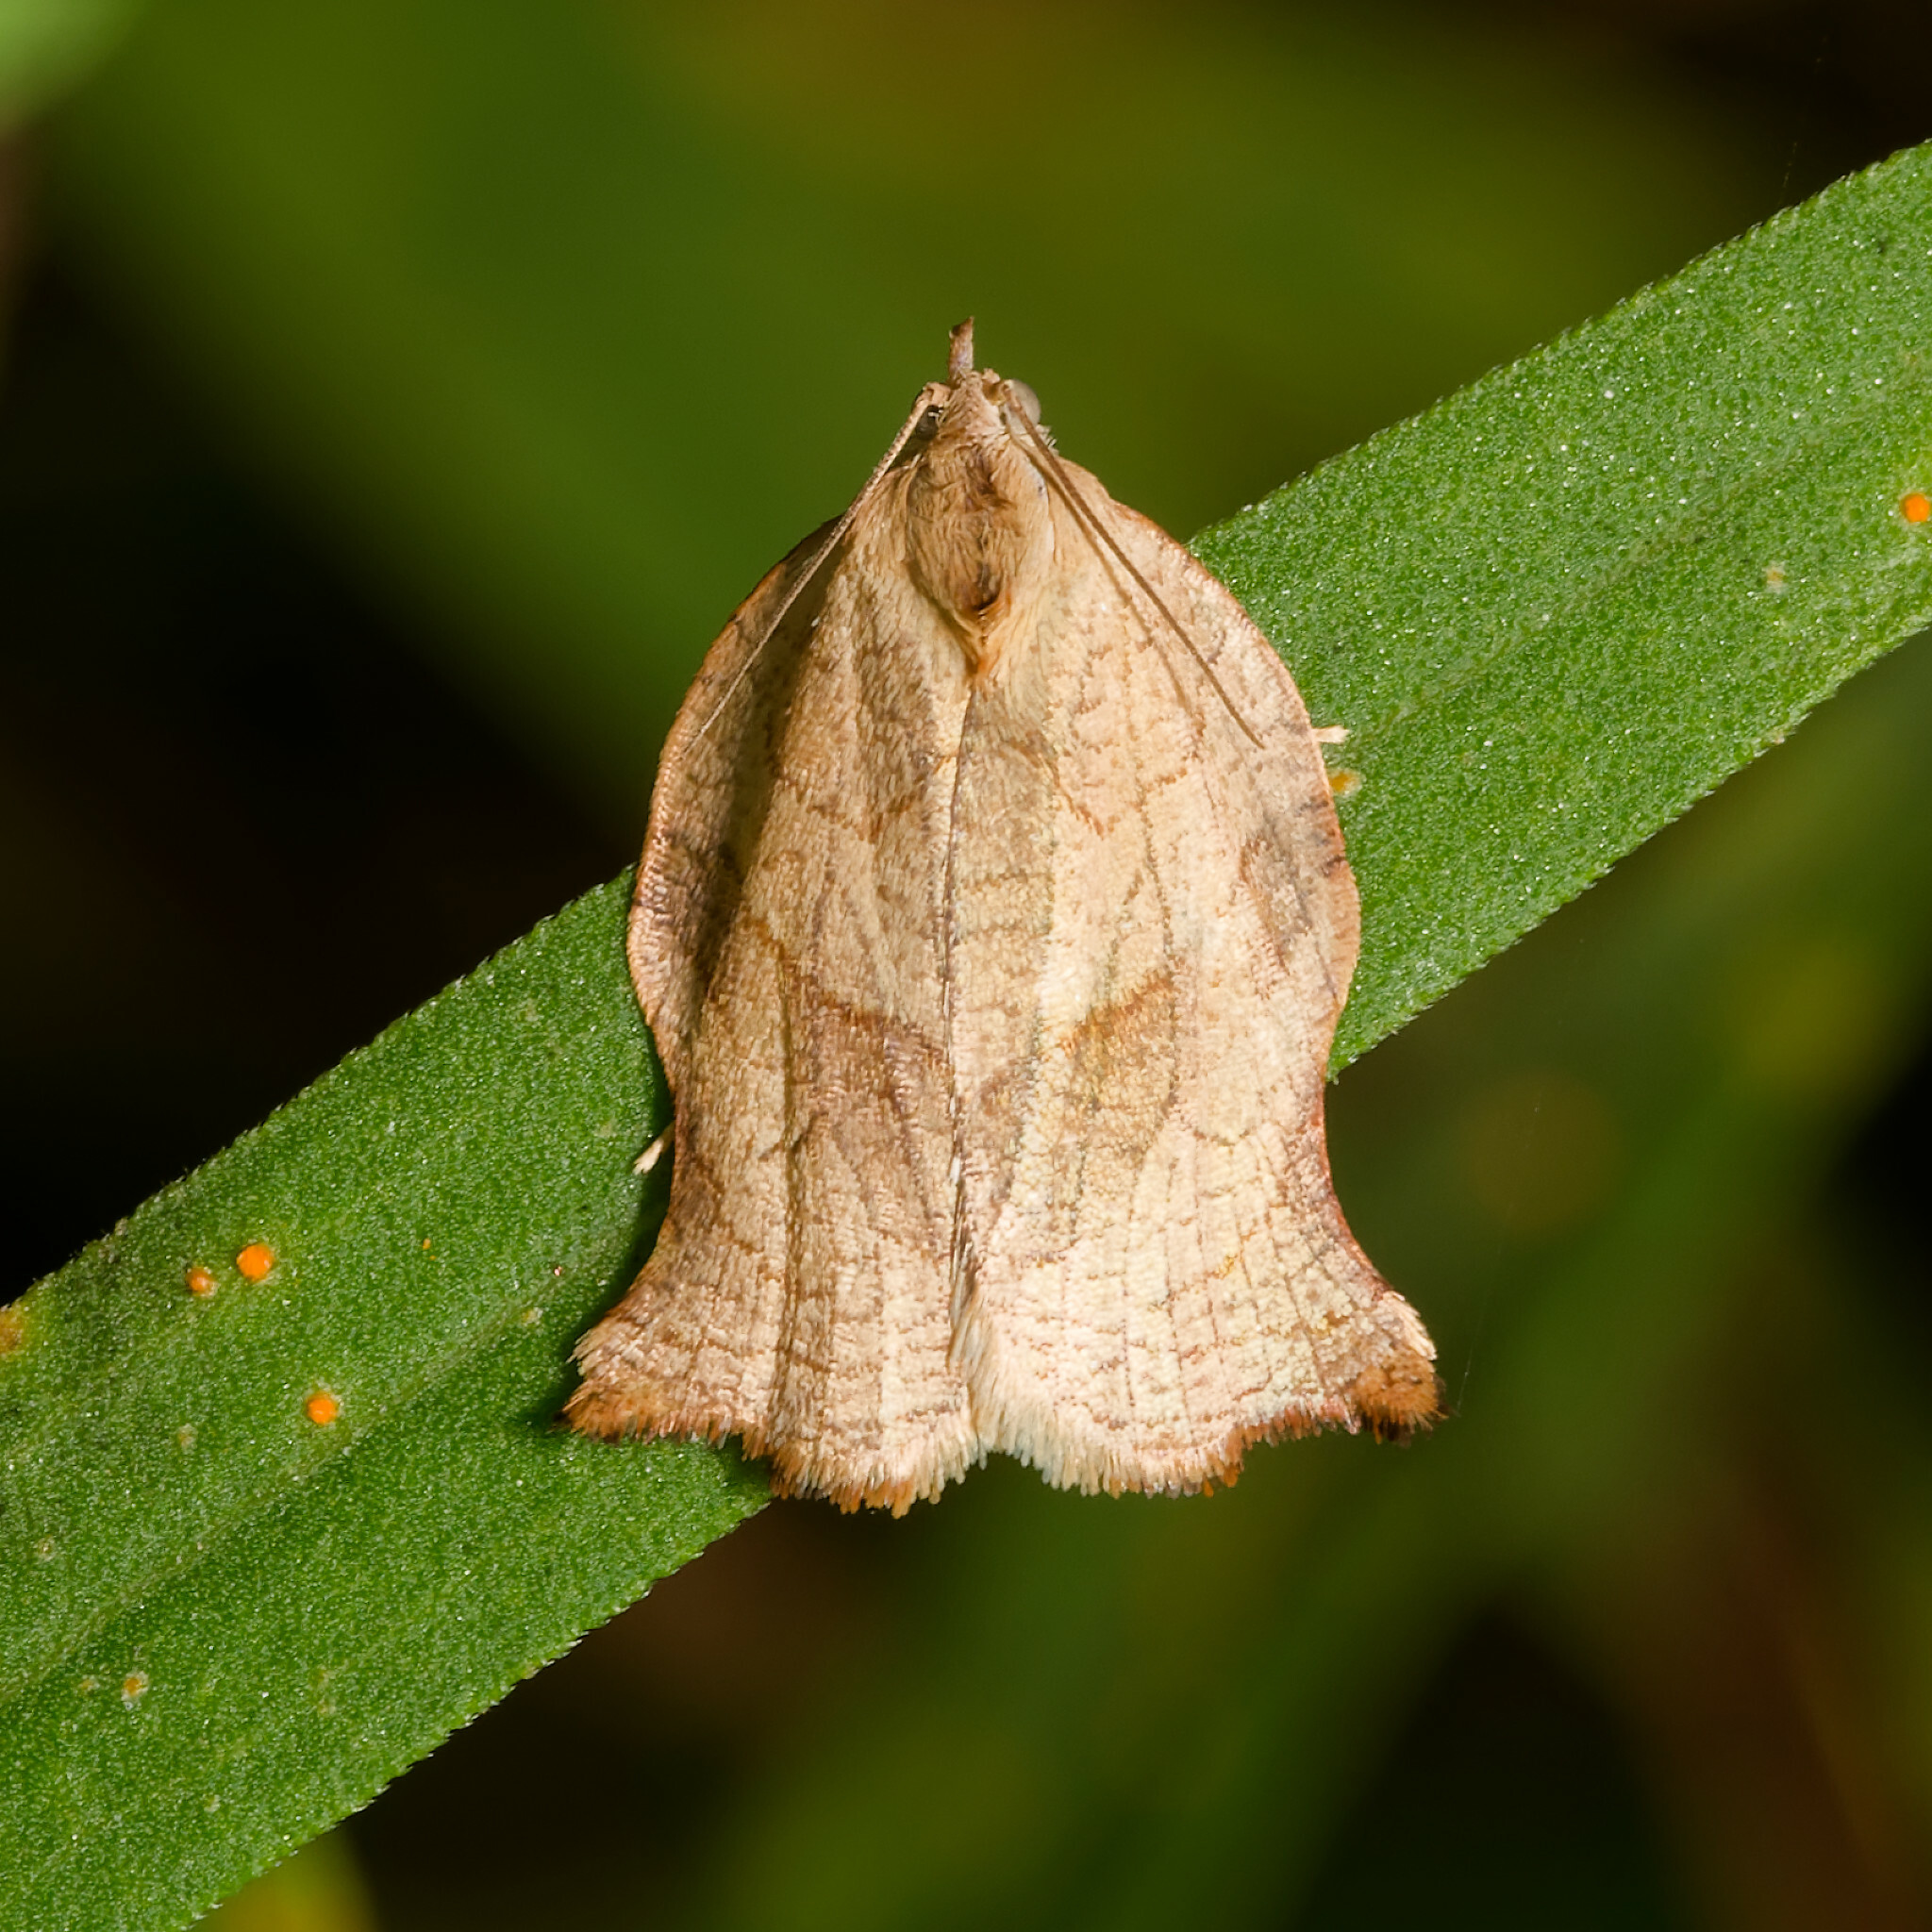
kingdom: Animalia
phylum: Arthropoda
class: Insecta
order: Lepidoptera
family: Tortricidae
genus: Archips
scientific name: Archips purpurana
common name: Omnivorous leafroller
